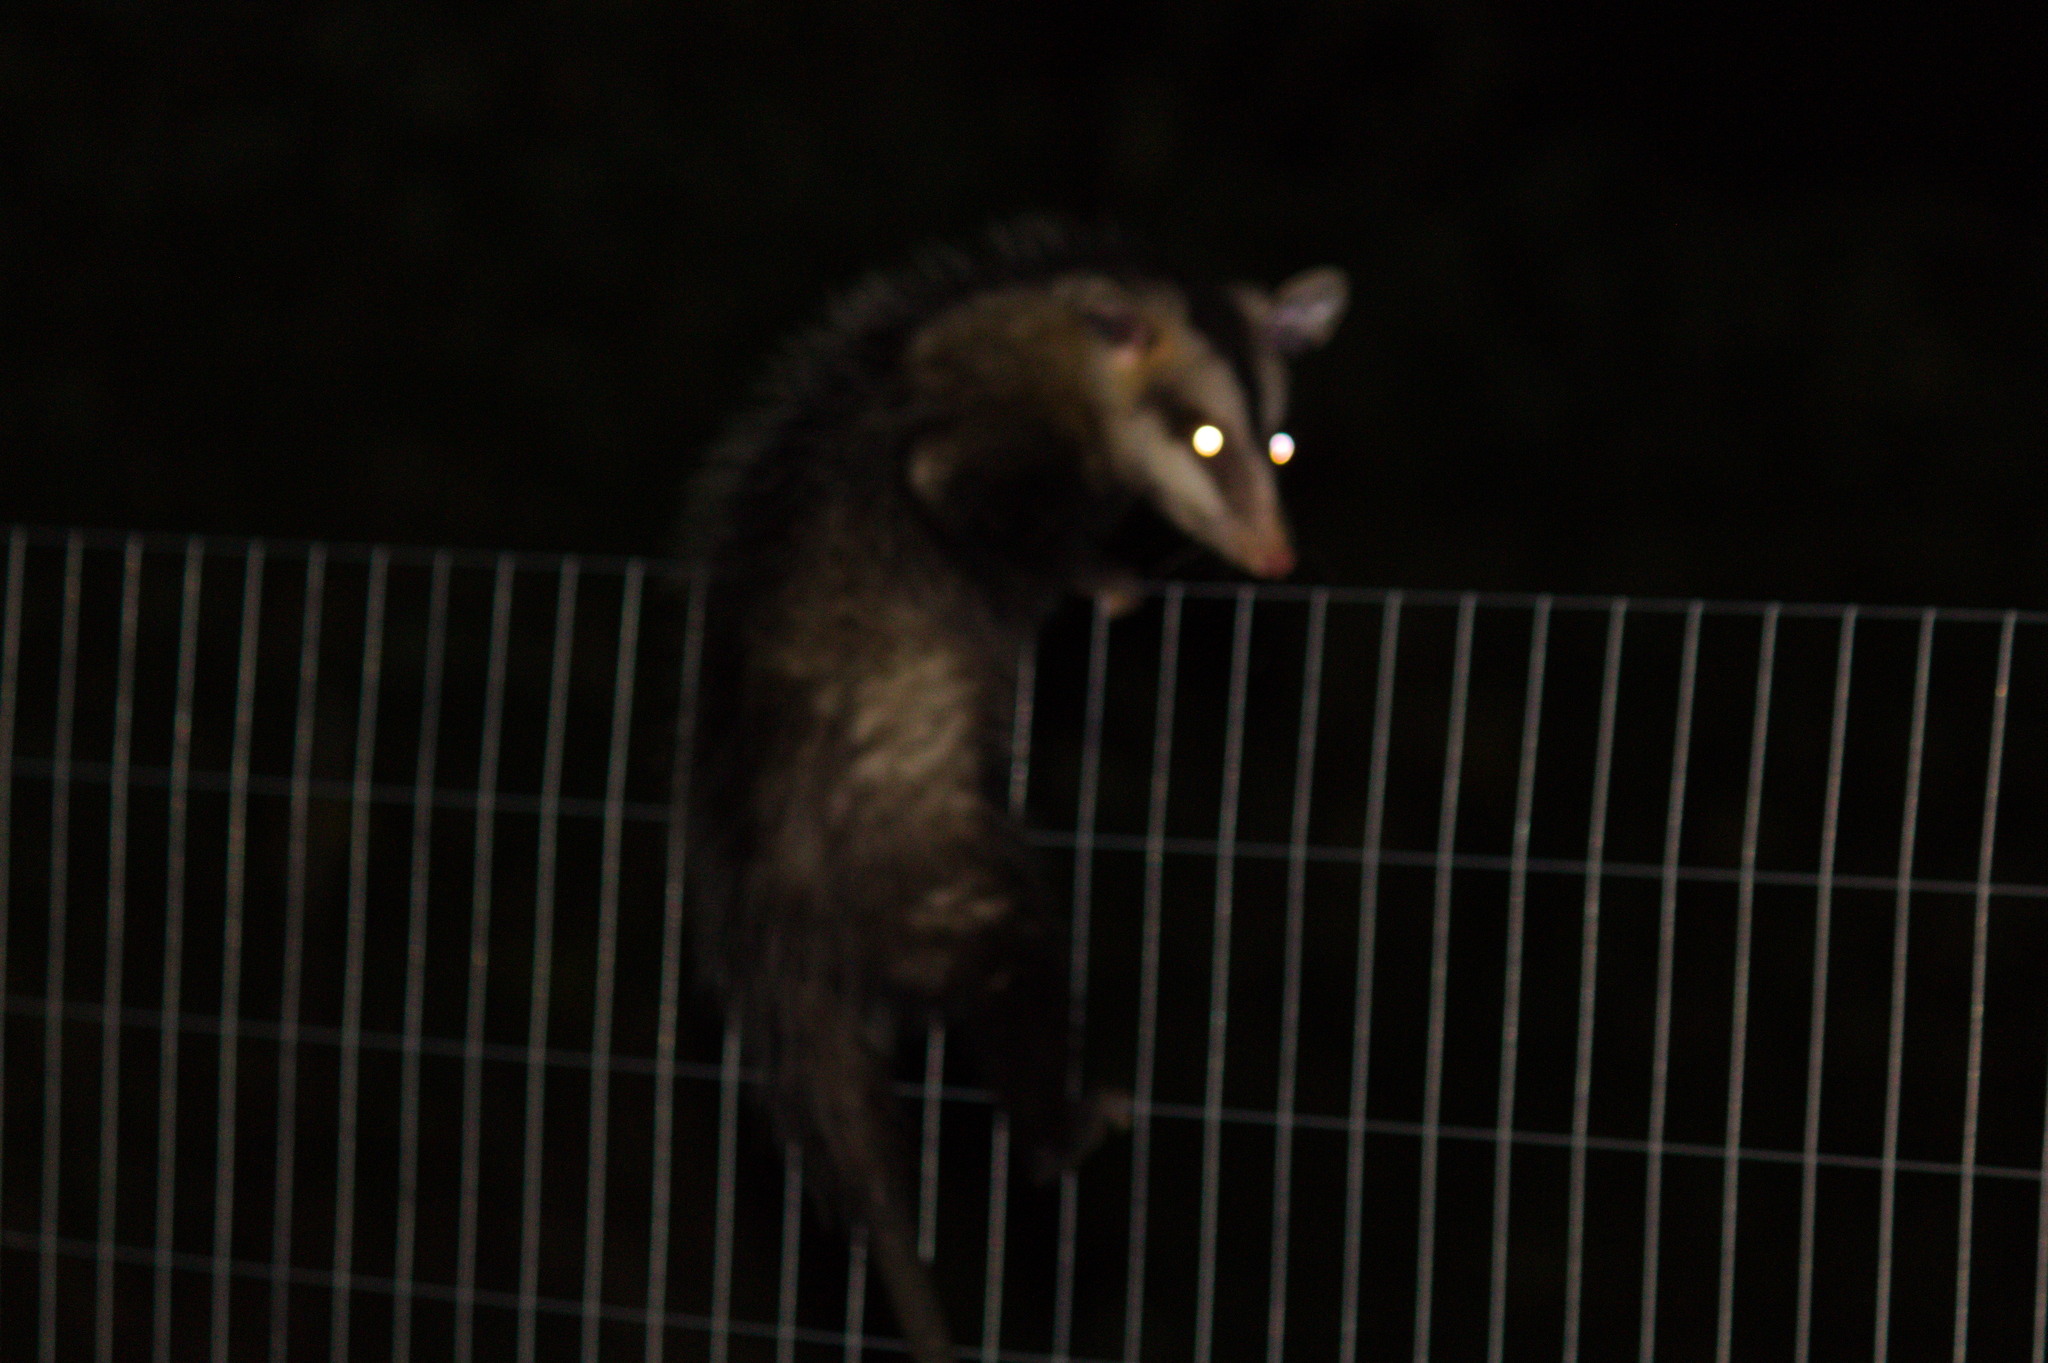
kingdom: Animalia
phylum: Chordata
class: Mammalia
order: Didelphimorphia
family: Didelphidae
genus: Didelphis
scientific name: Didelphis albiventris
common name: White-eared opossum
